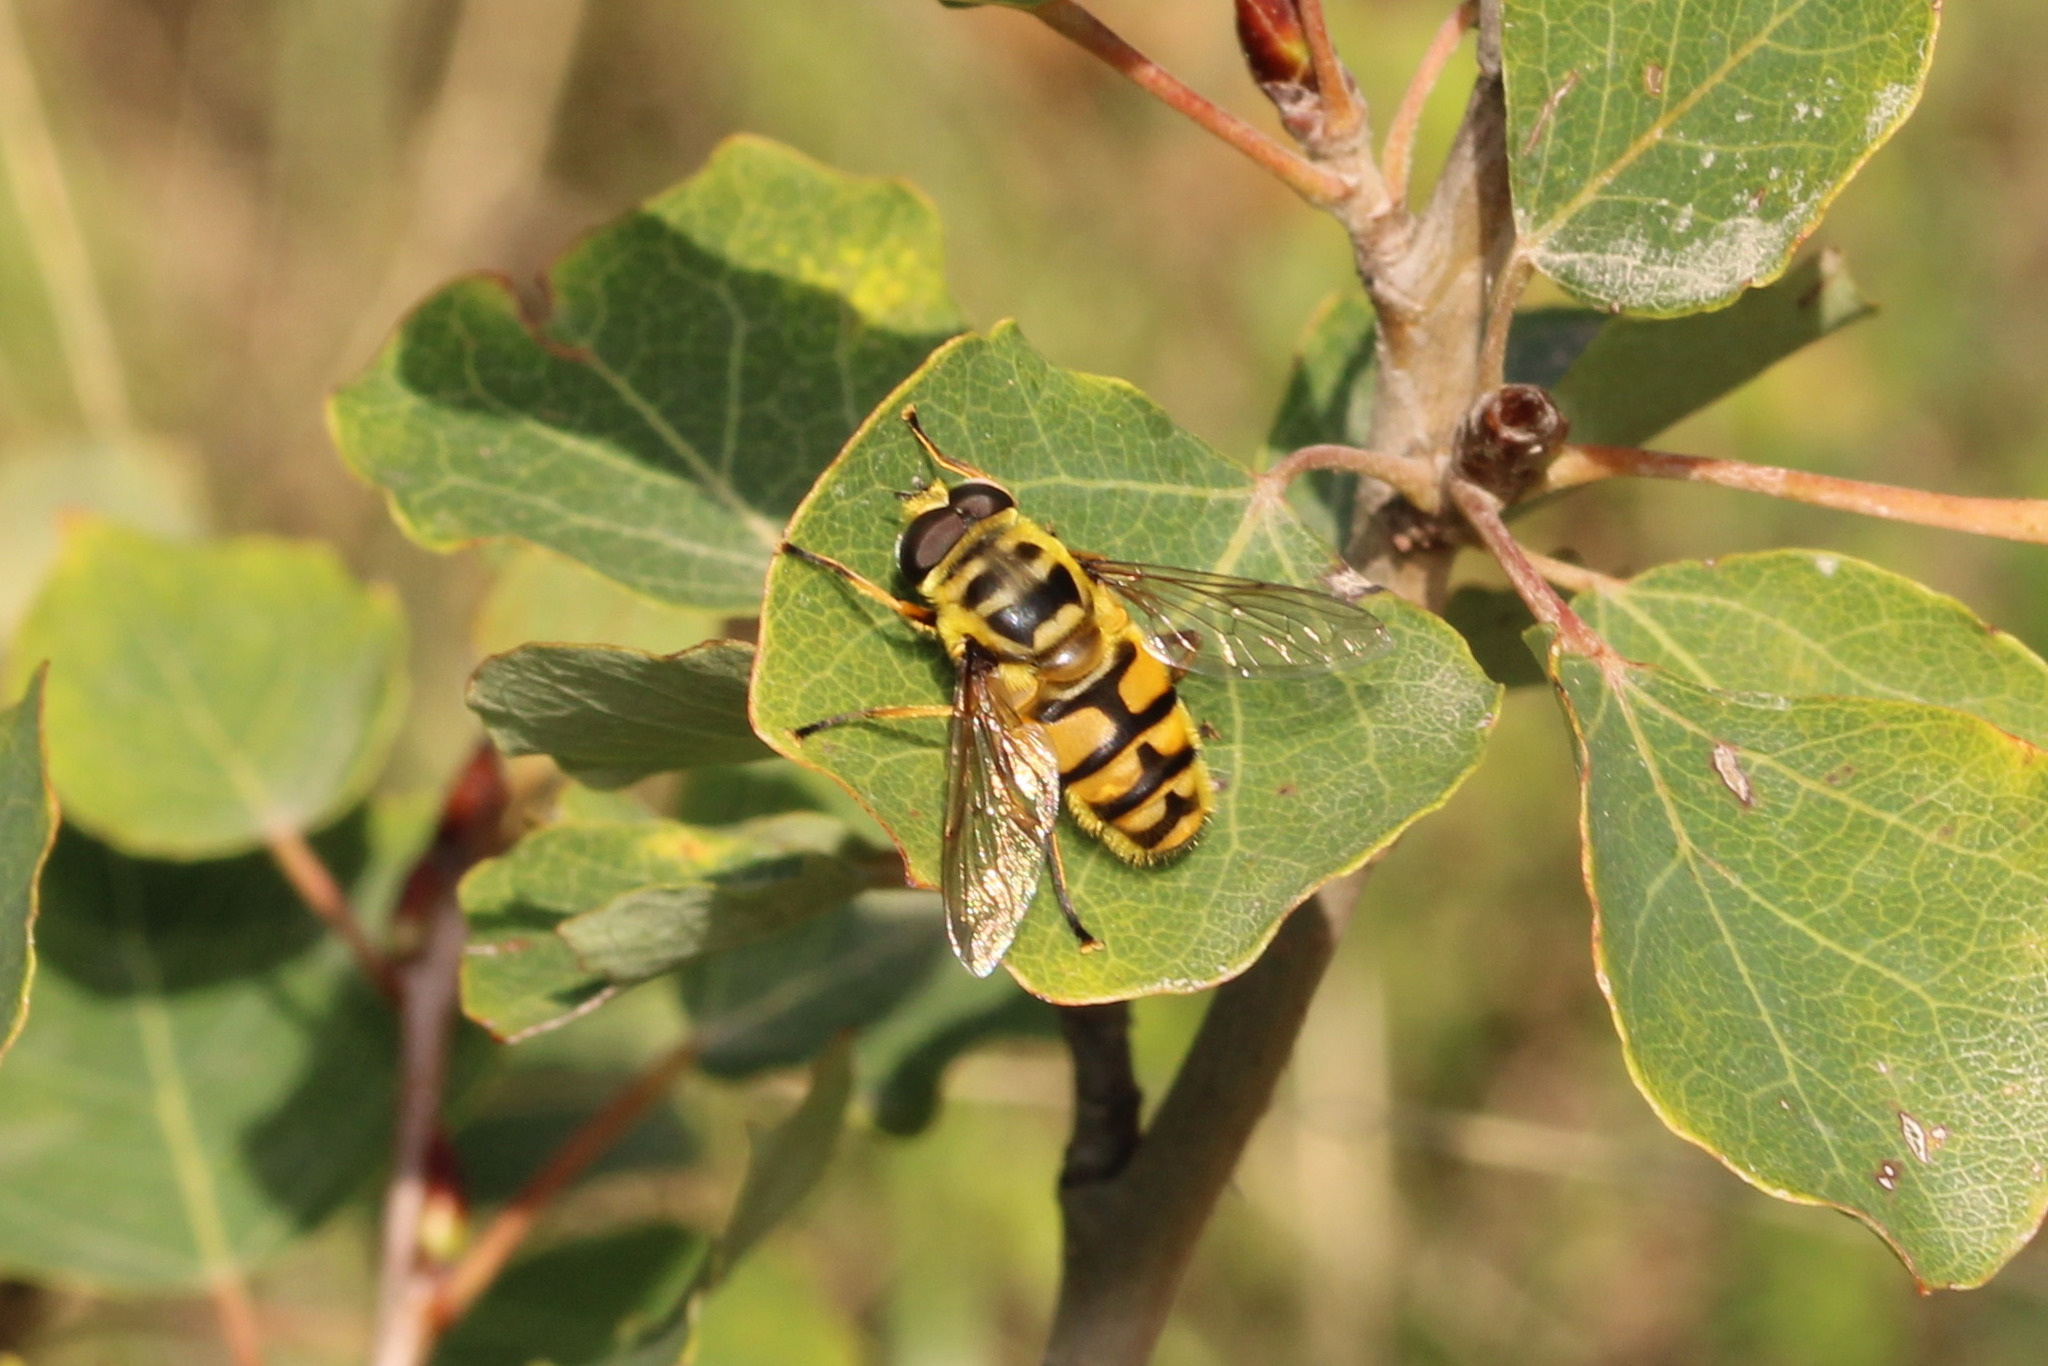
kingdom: Animalia
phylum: Arthropoda
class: Insecta
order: Diptera
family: Syrphidae
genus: Myathropa
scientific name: Myathropa florea
